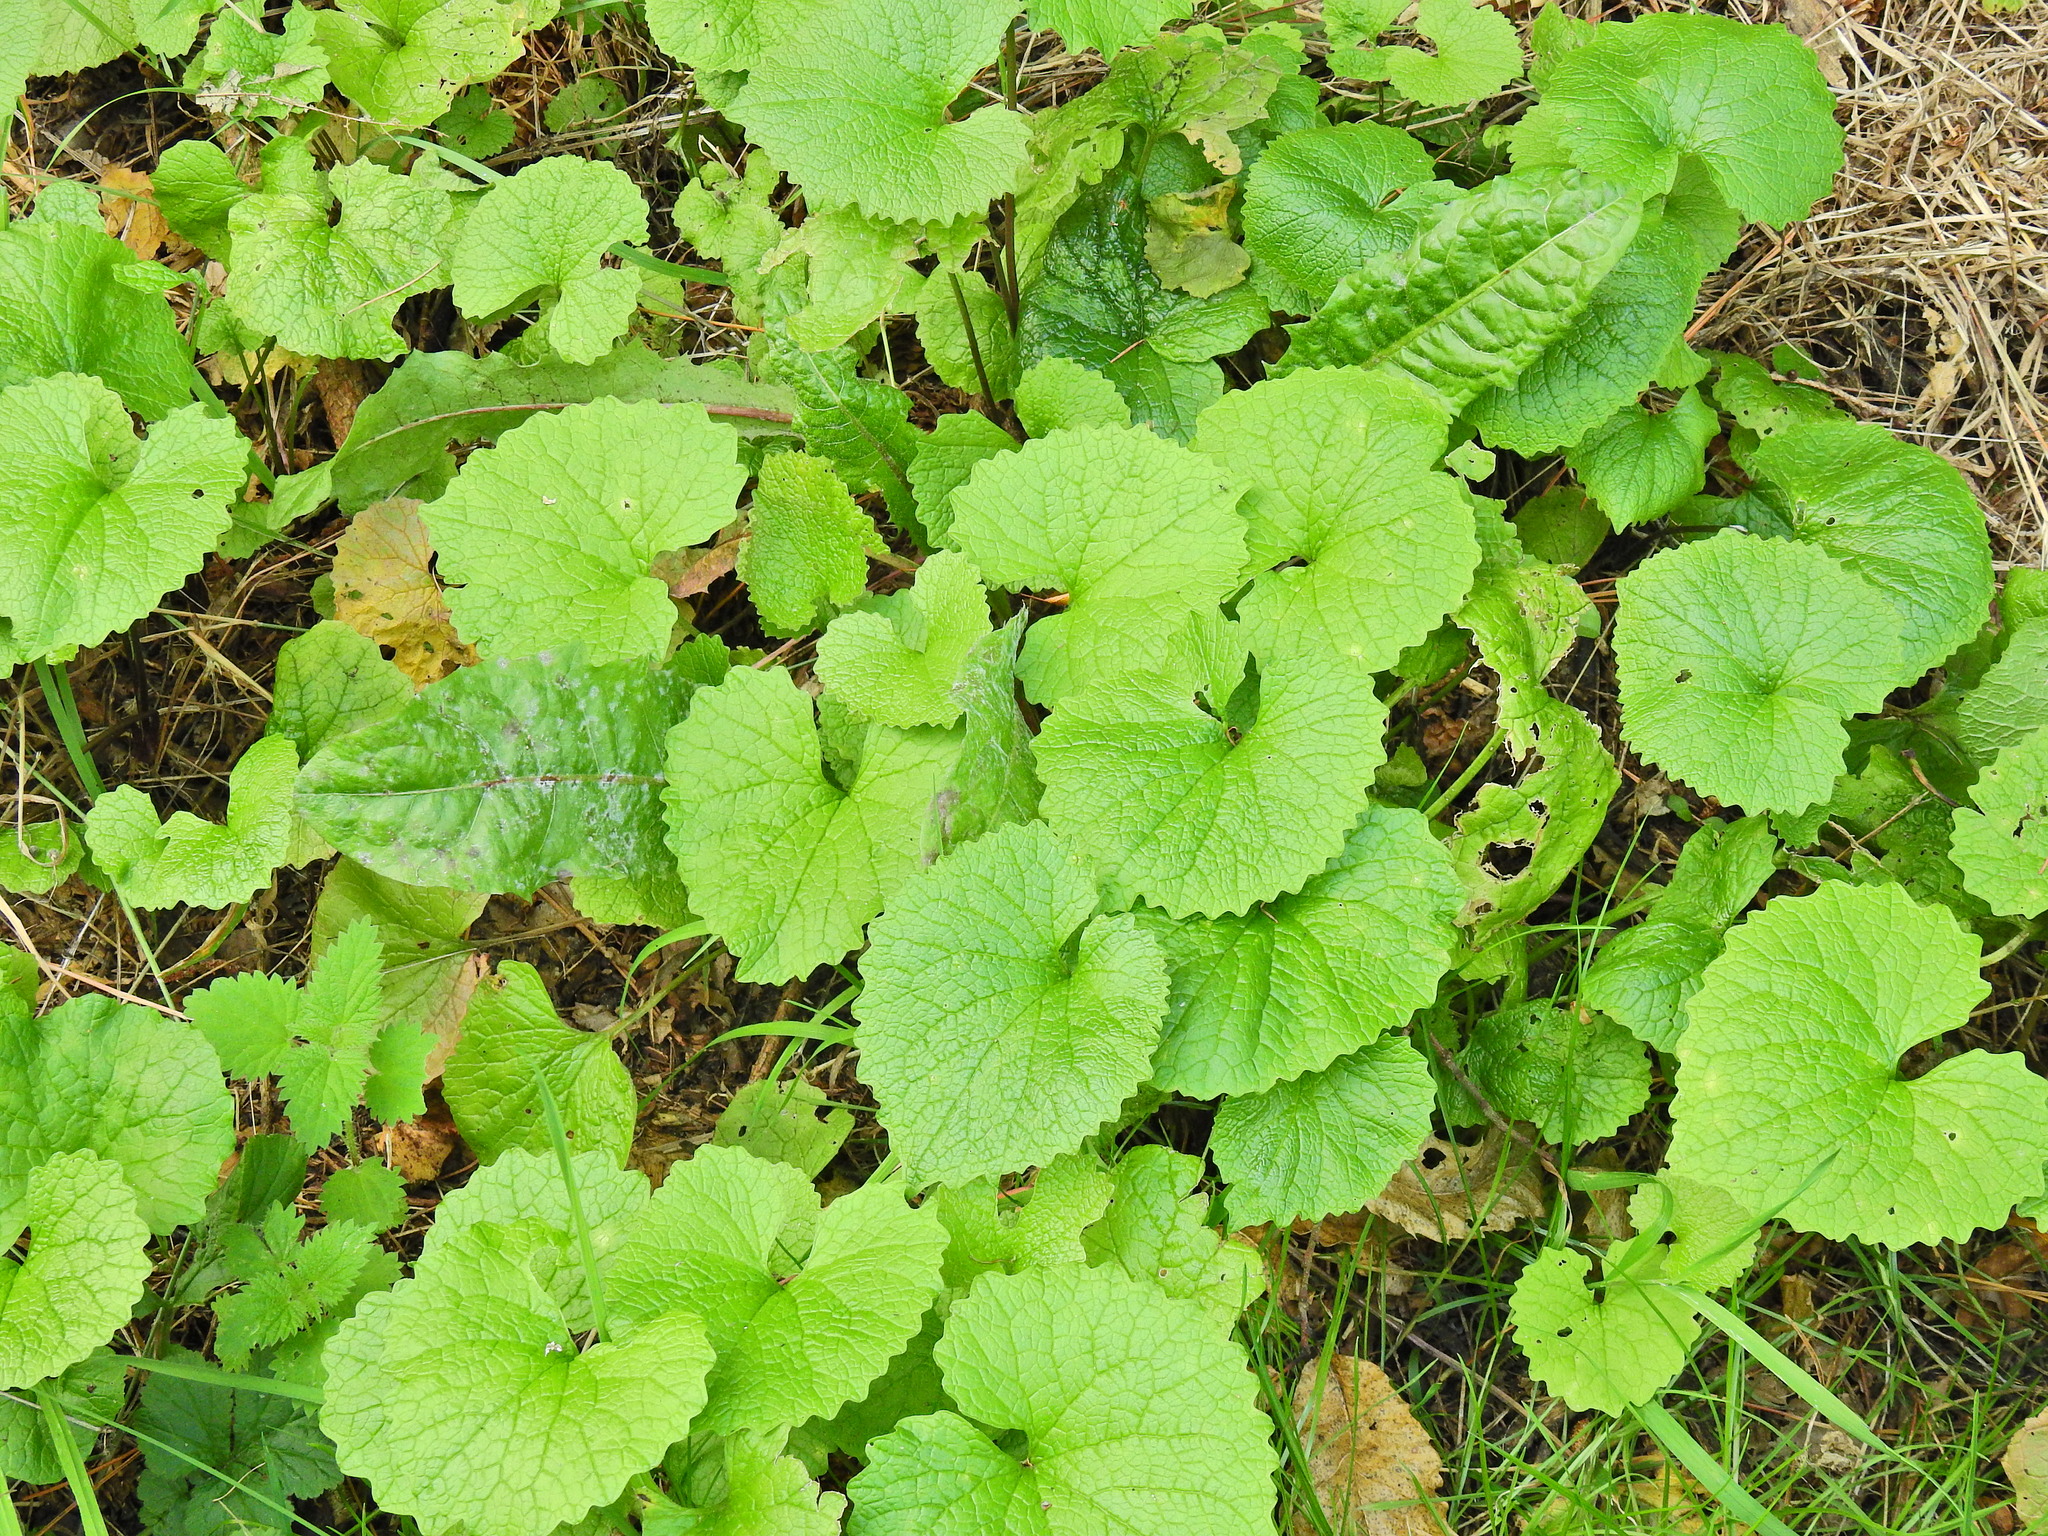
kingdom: Plantae
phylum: Tracheophyta
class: Magnoliopsida
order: Brassicales
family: Brassicaceae
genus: Alliaria
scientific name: Alliaria petiolata
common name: Garlic mustard
